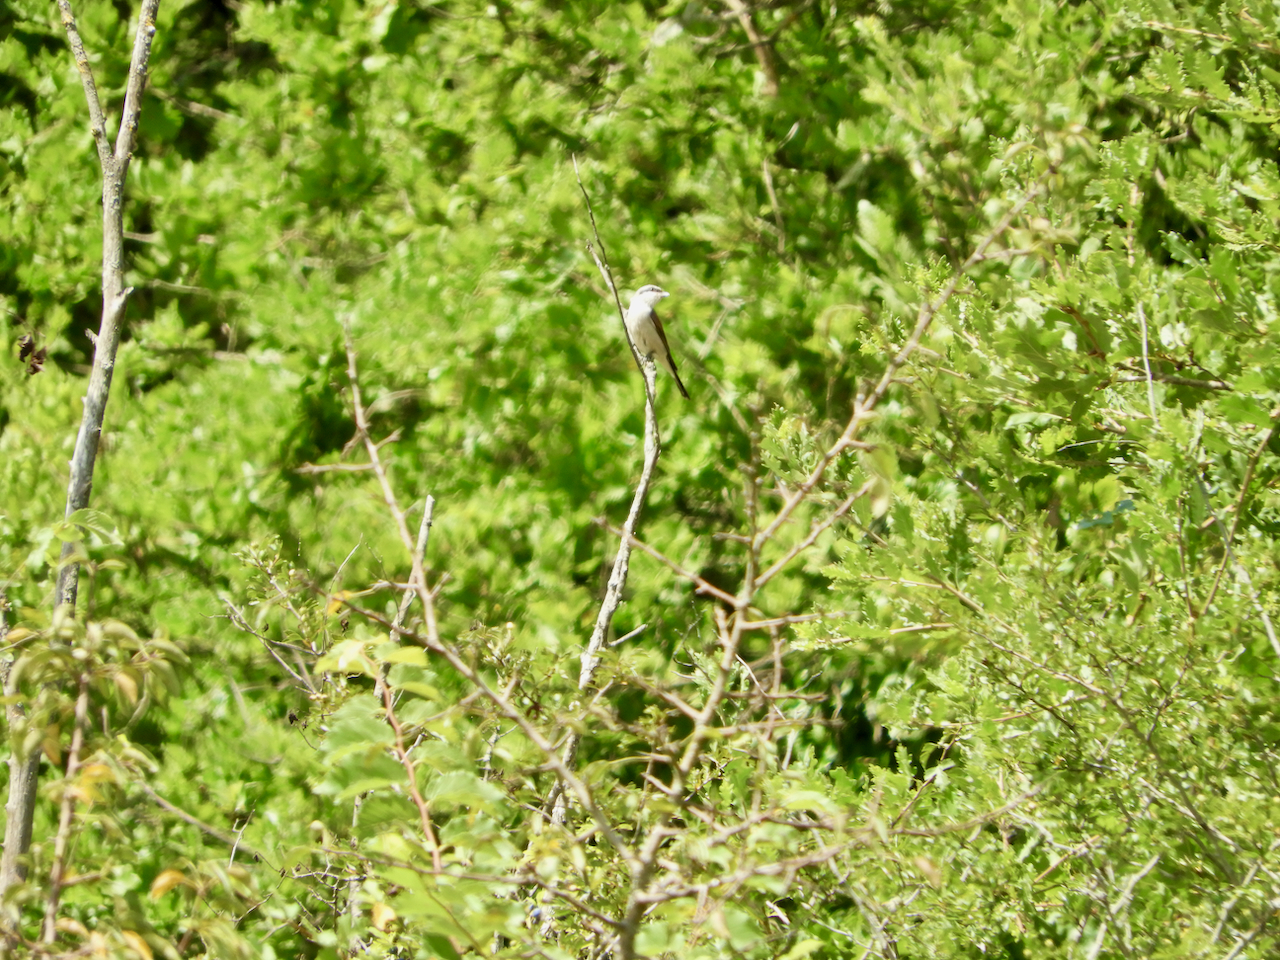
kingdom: Animalia
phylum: Chordata
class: Aves
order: Passeriformes
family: Laniidae
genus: Lanius
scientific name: Lanius collurio
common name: Red-backed shrike
